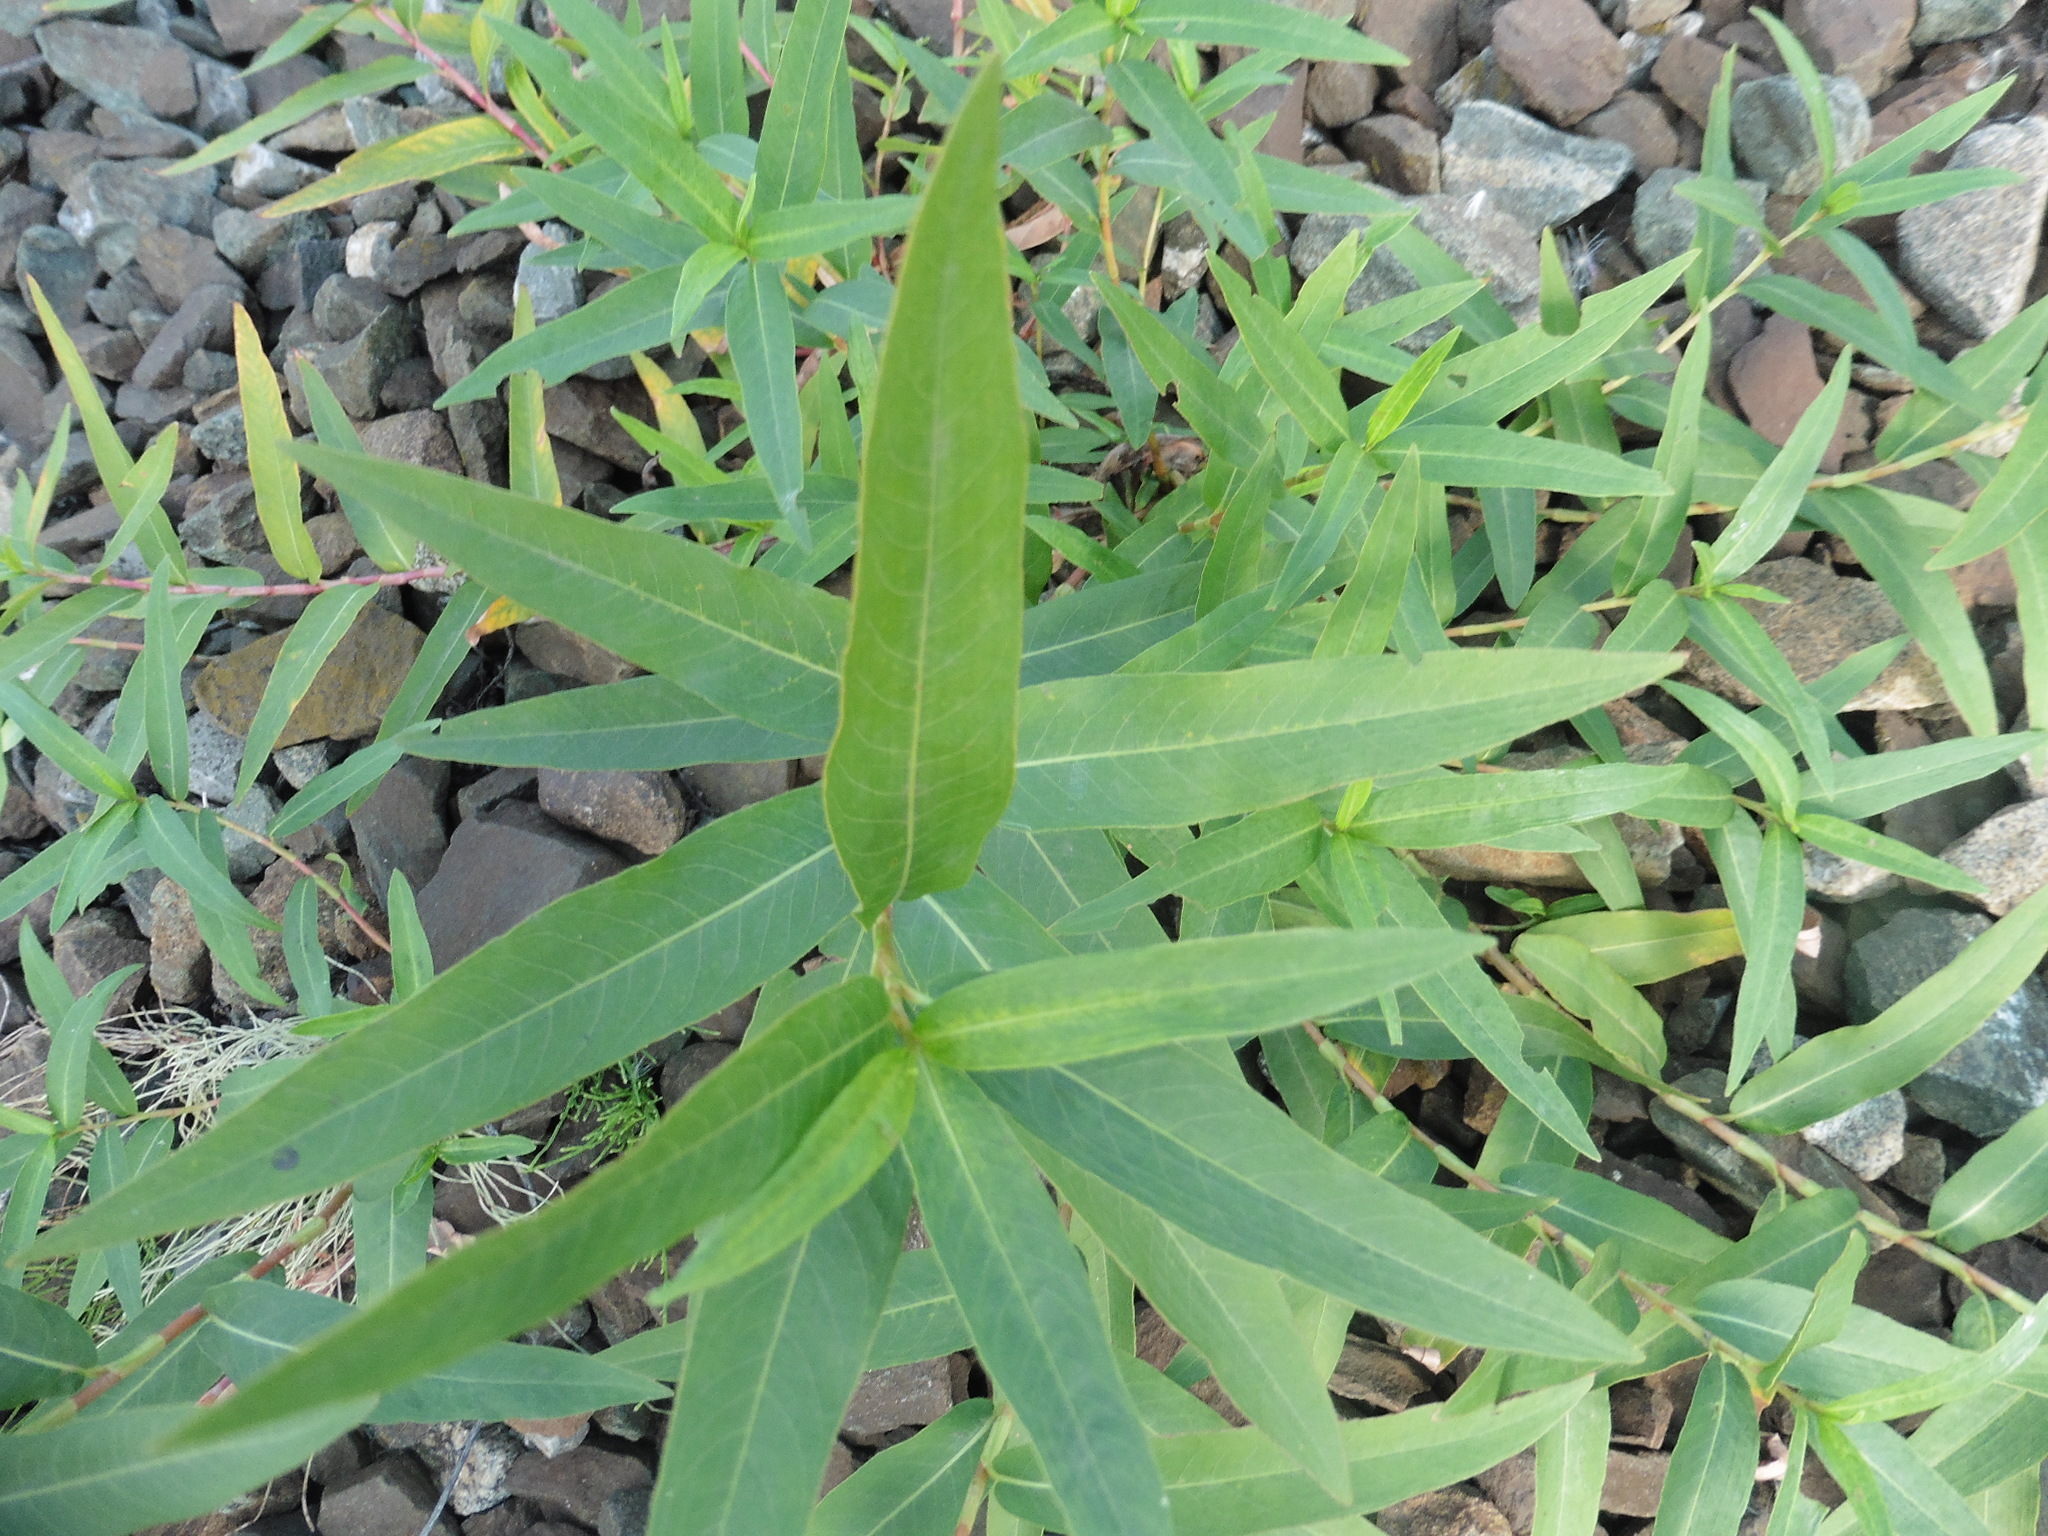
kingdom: Plantae
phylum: Tracheophyta
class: Magnoliopsida
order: Caryophyllales
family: Polygonaceae
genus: Persicaria
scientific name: Persicaria amphibia
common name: Amphibious bistort
